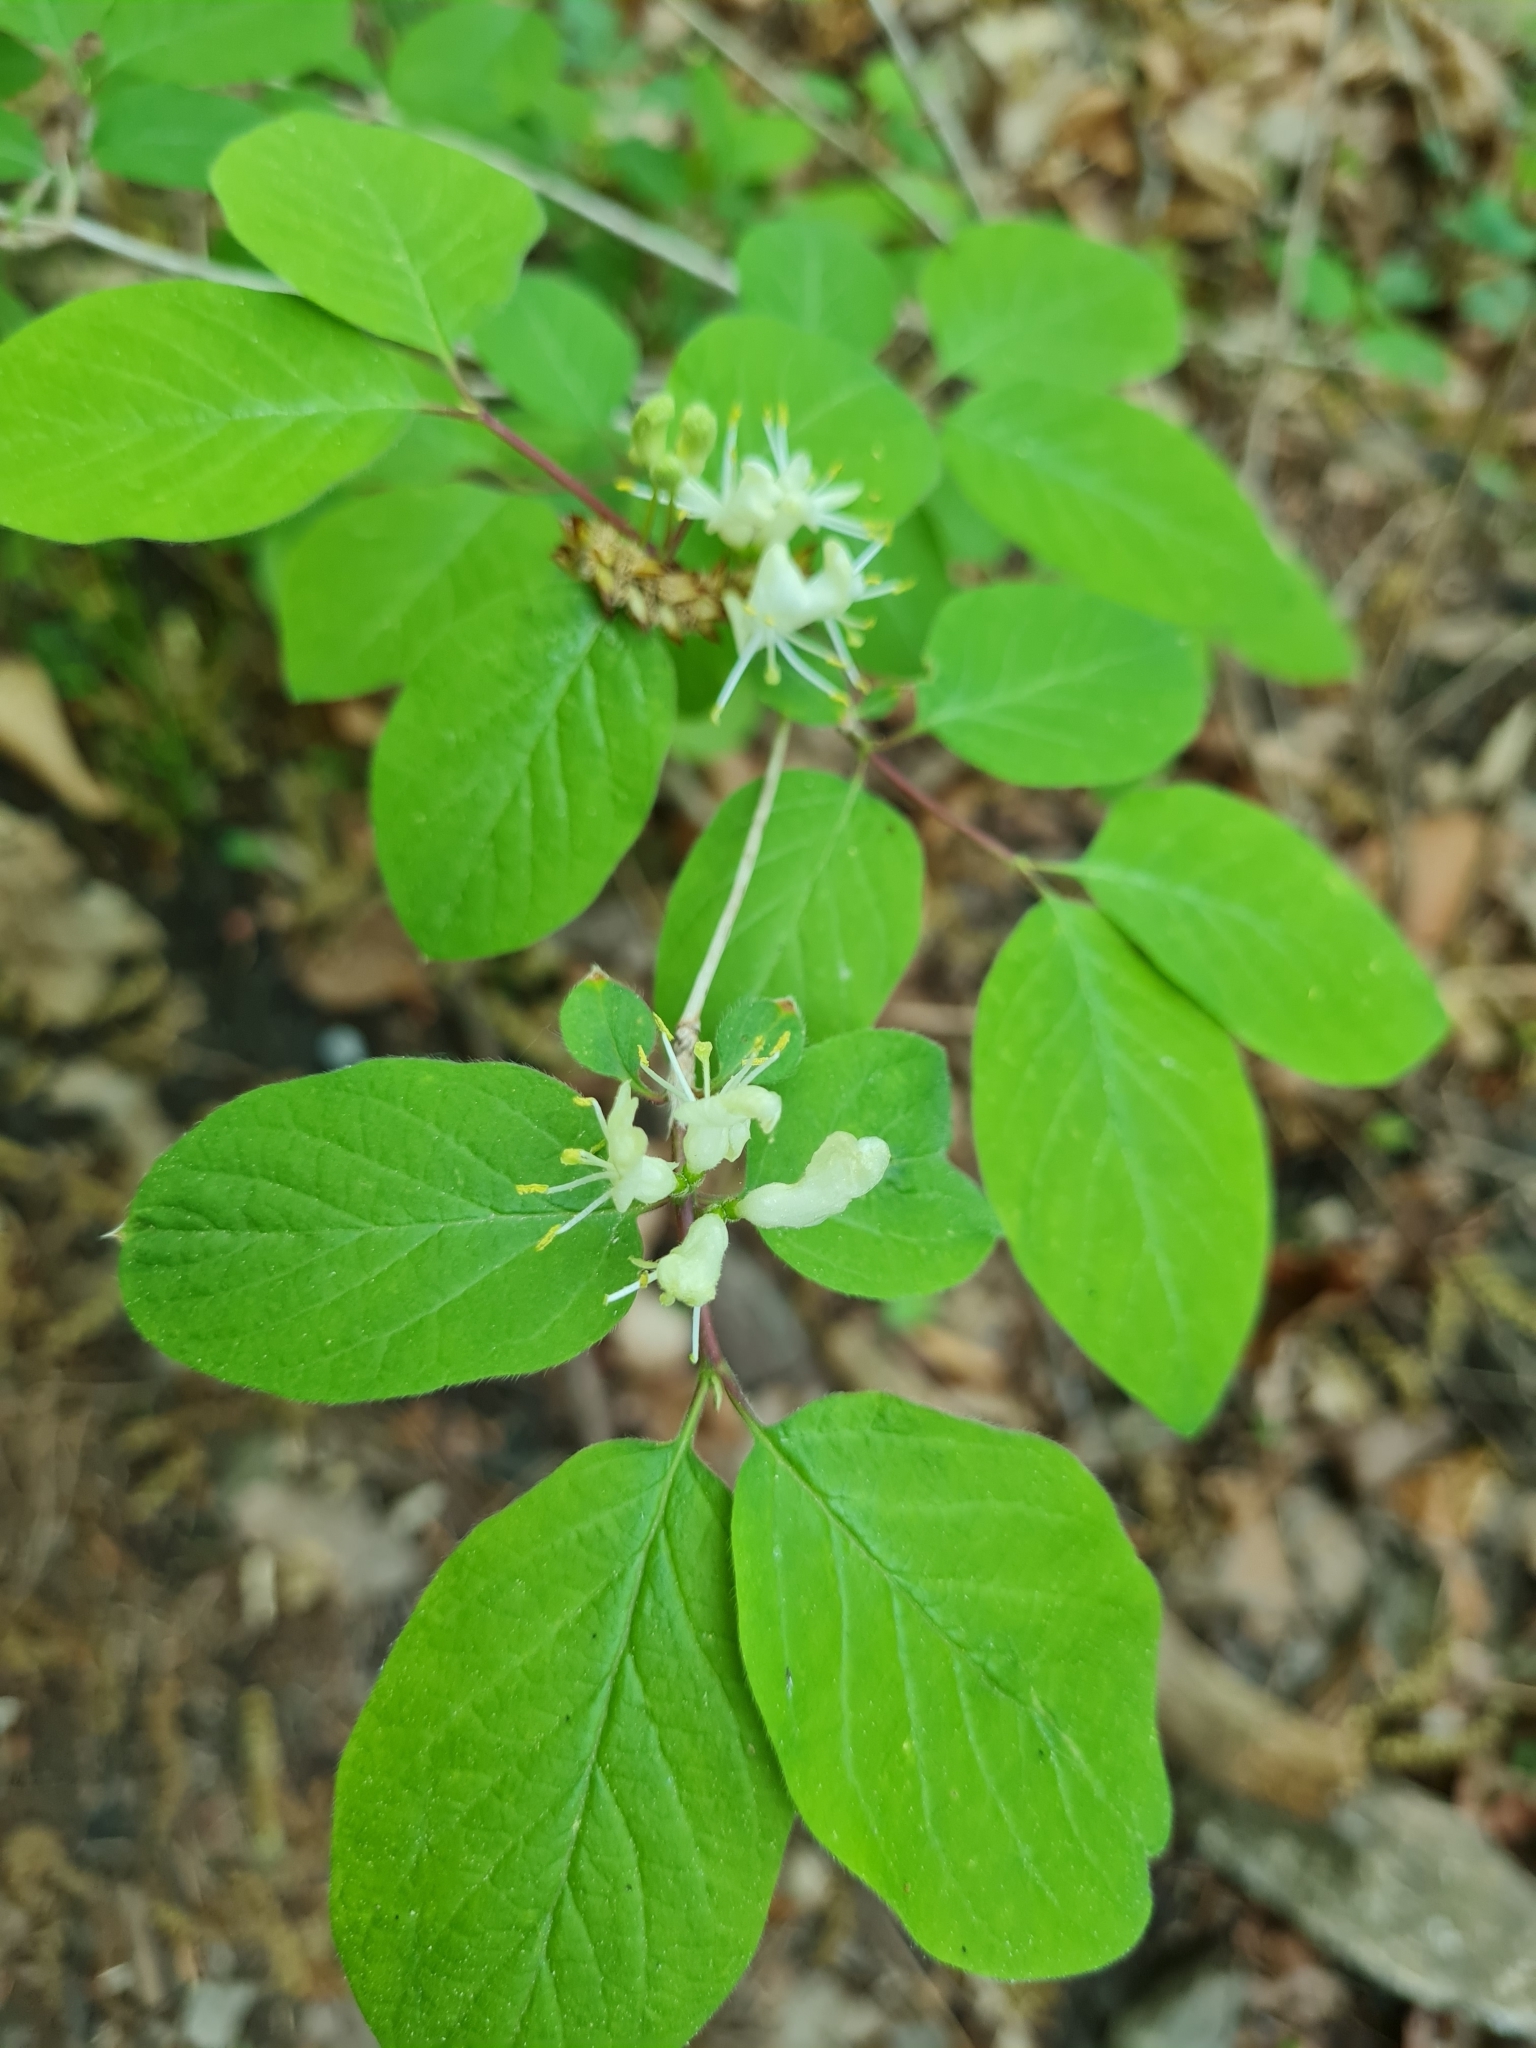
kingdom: Plantae
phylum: Tracheophyta
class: Magnoliopsida
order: Dipsacales
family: Caprifoliaceae
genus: Lonicera
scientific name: Lonicera xylosteum
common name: Fly honeysuckle
